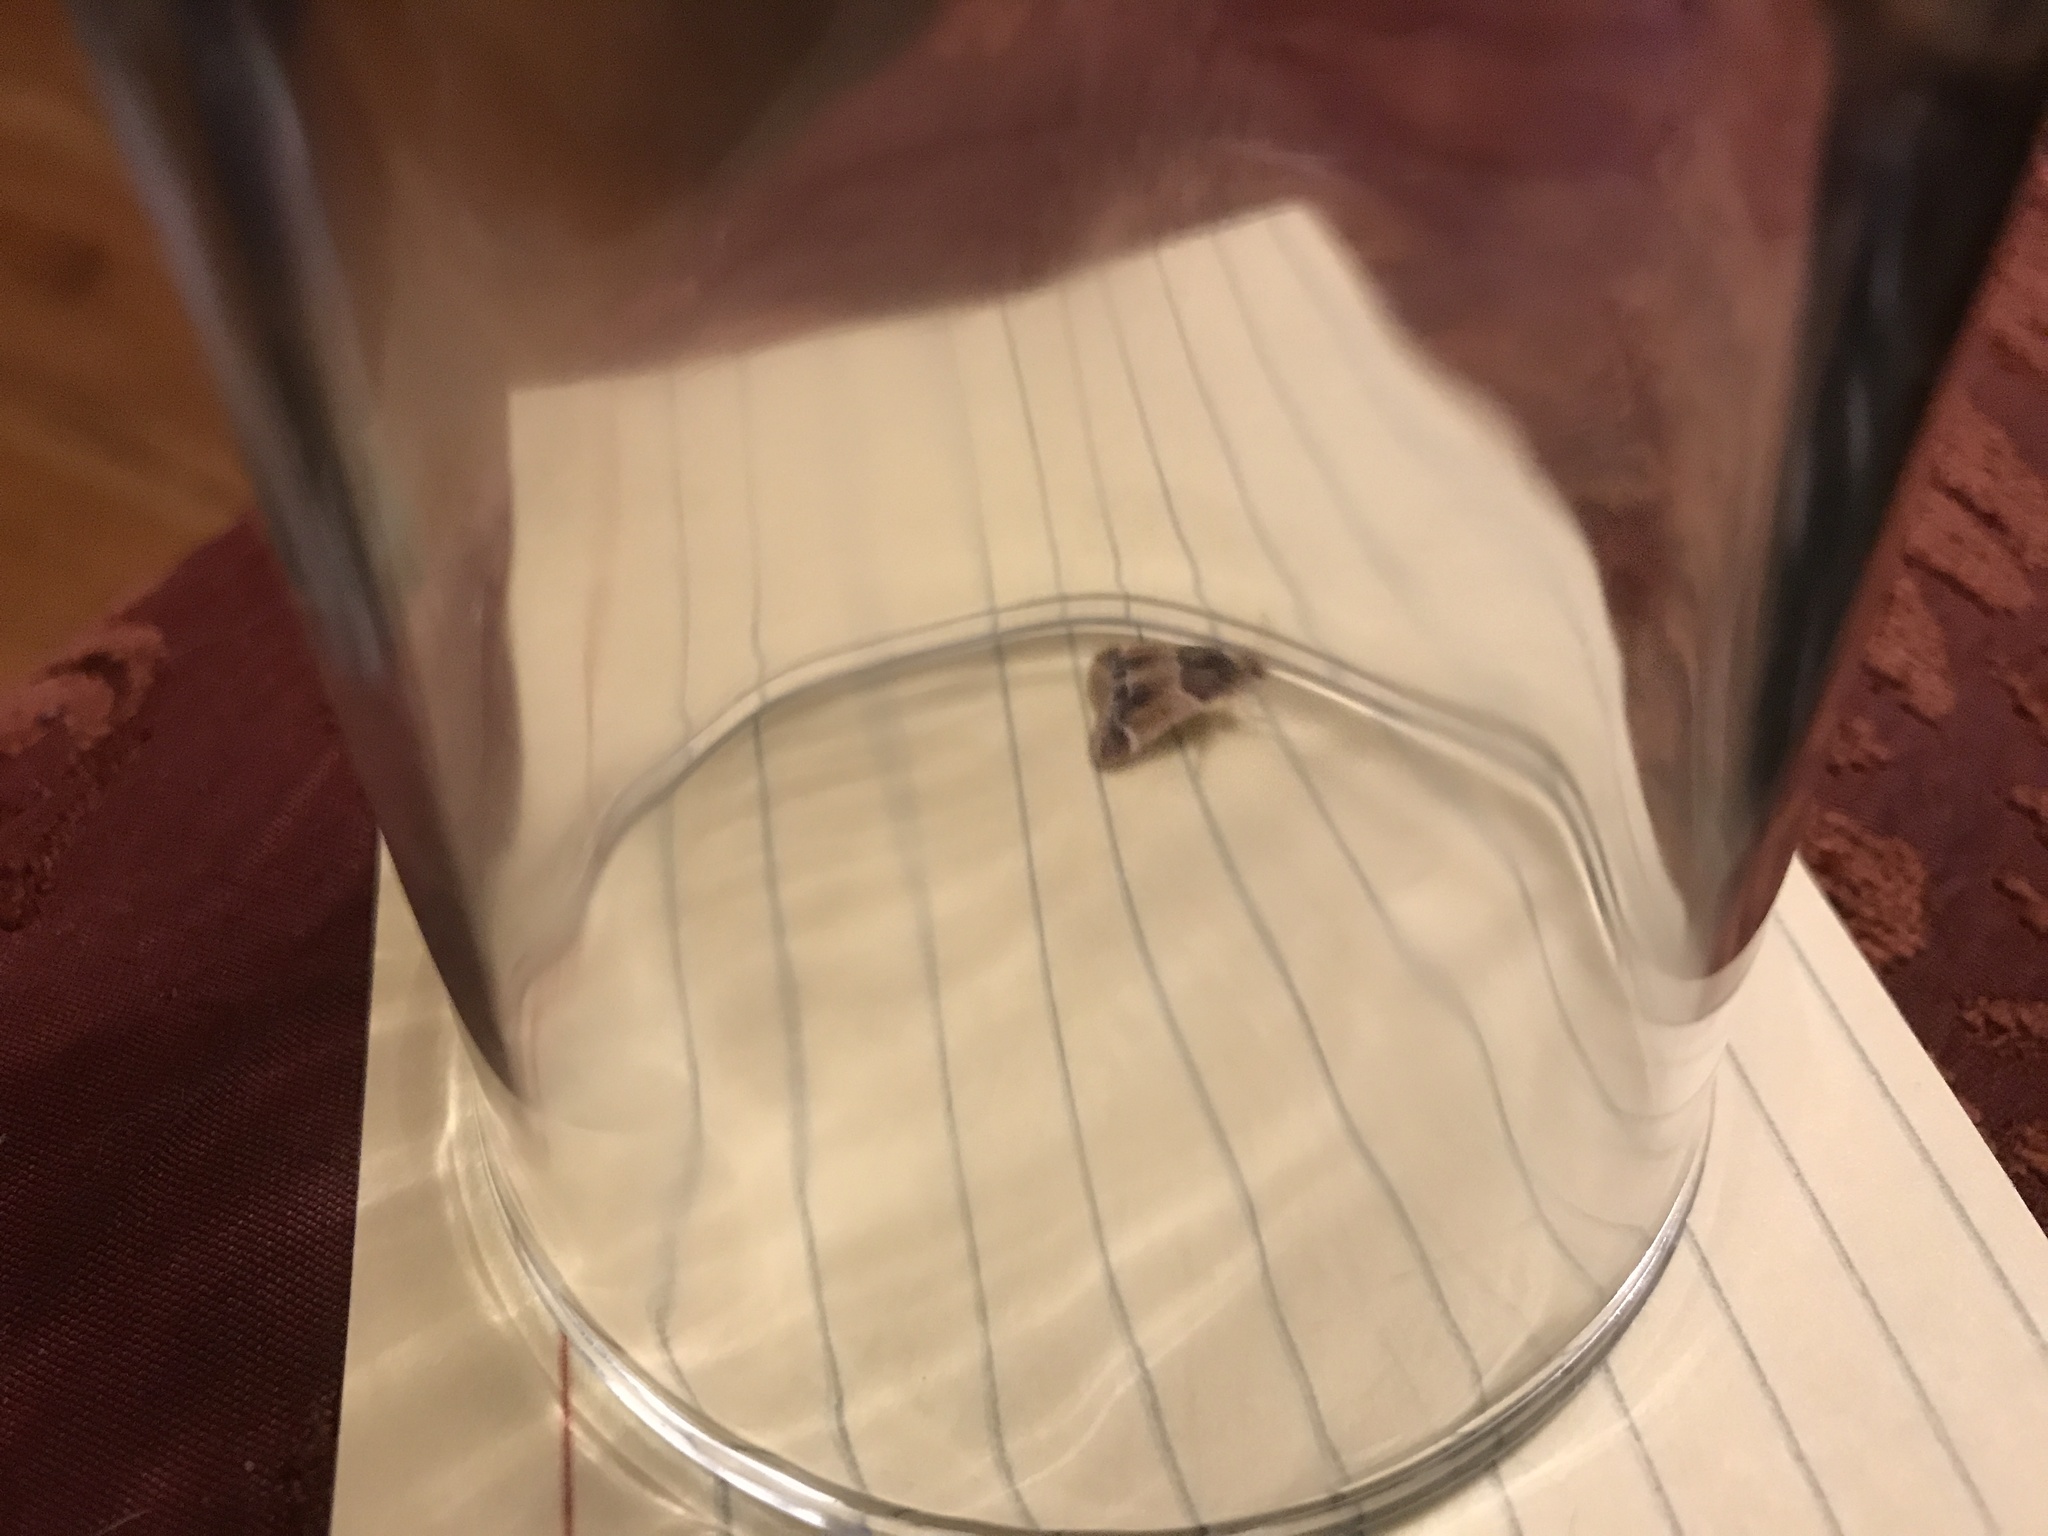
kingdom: Animalia
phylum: Arthropoda
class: Insecta
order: Lepidoptera
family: Pyralidae
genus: Pyralis
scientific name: Pyralis farinalis
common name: Meal moth
